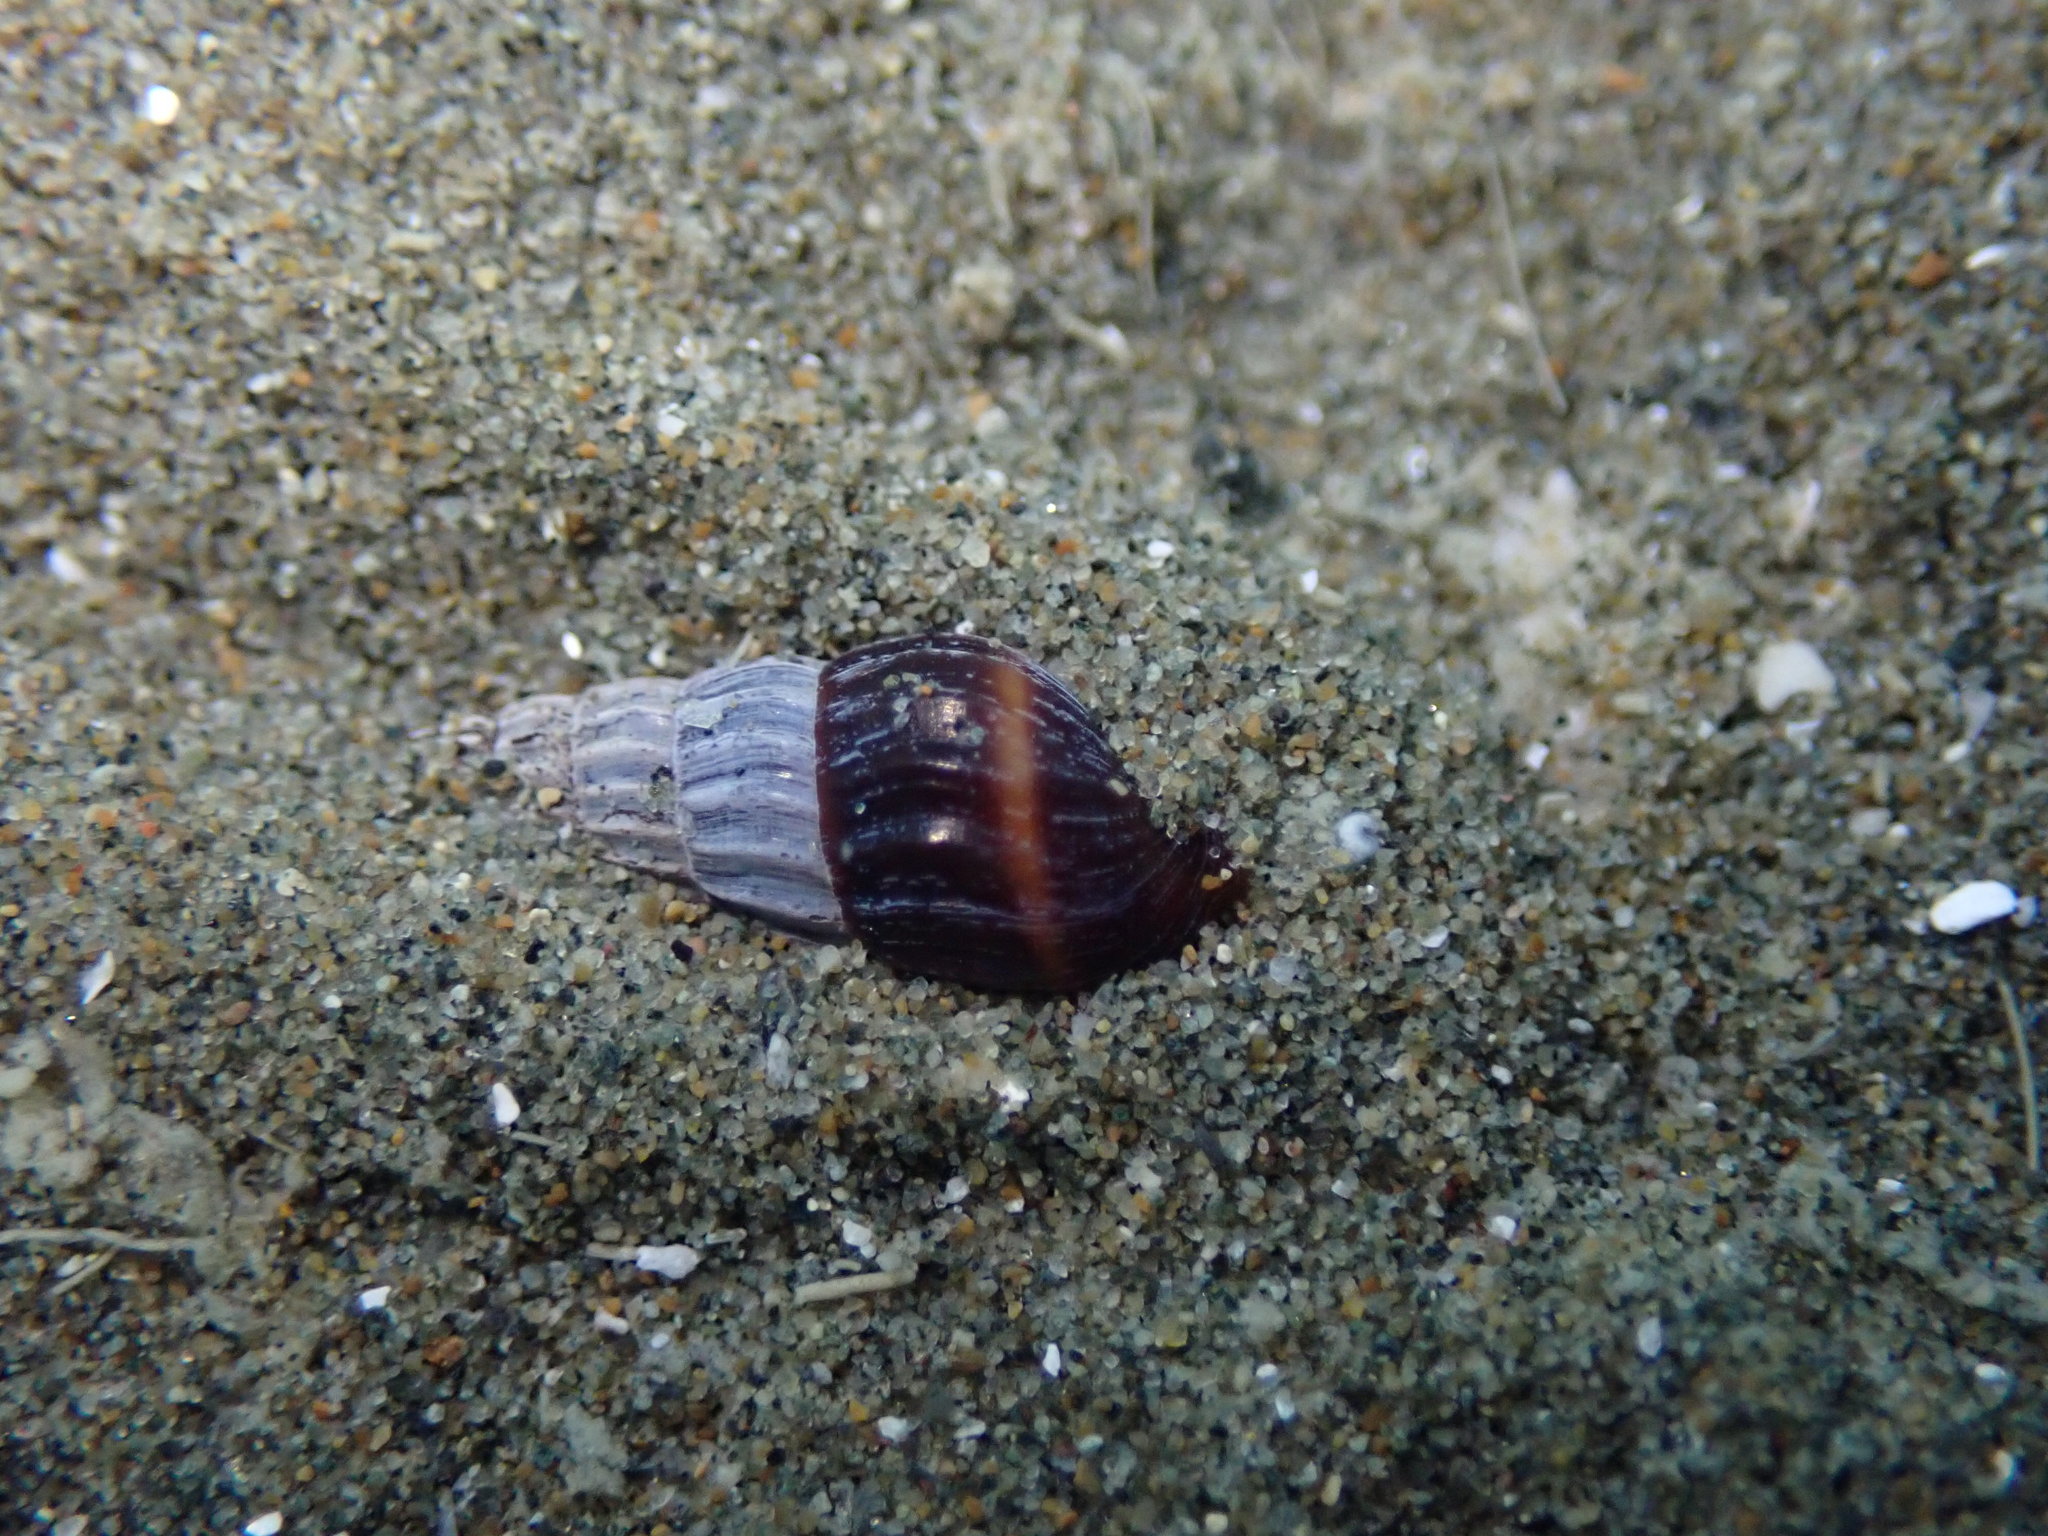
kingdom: Animalia
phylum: Mollusca
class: Gastropoda
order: Neogastropoda
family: Terebridae
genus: Duplicaria
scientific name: Duplicaria tristis
